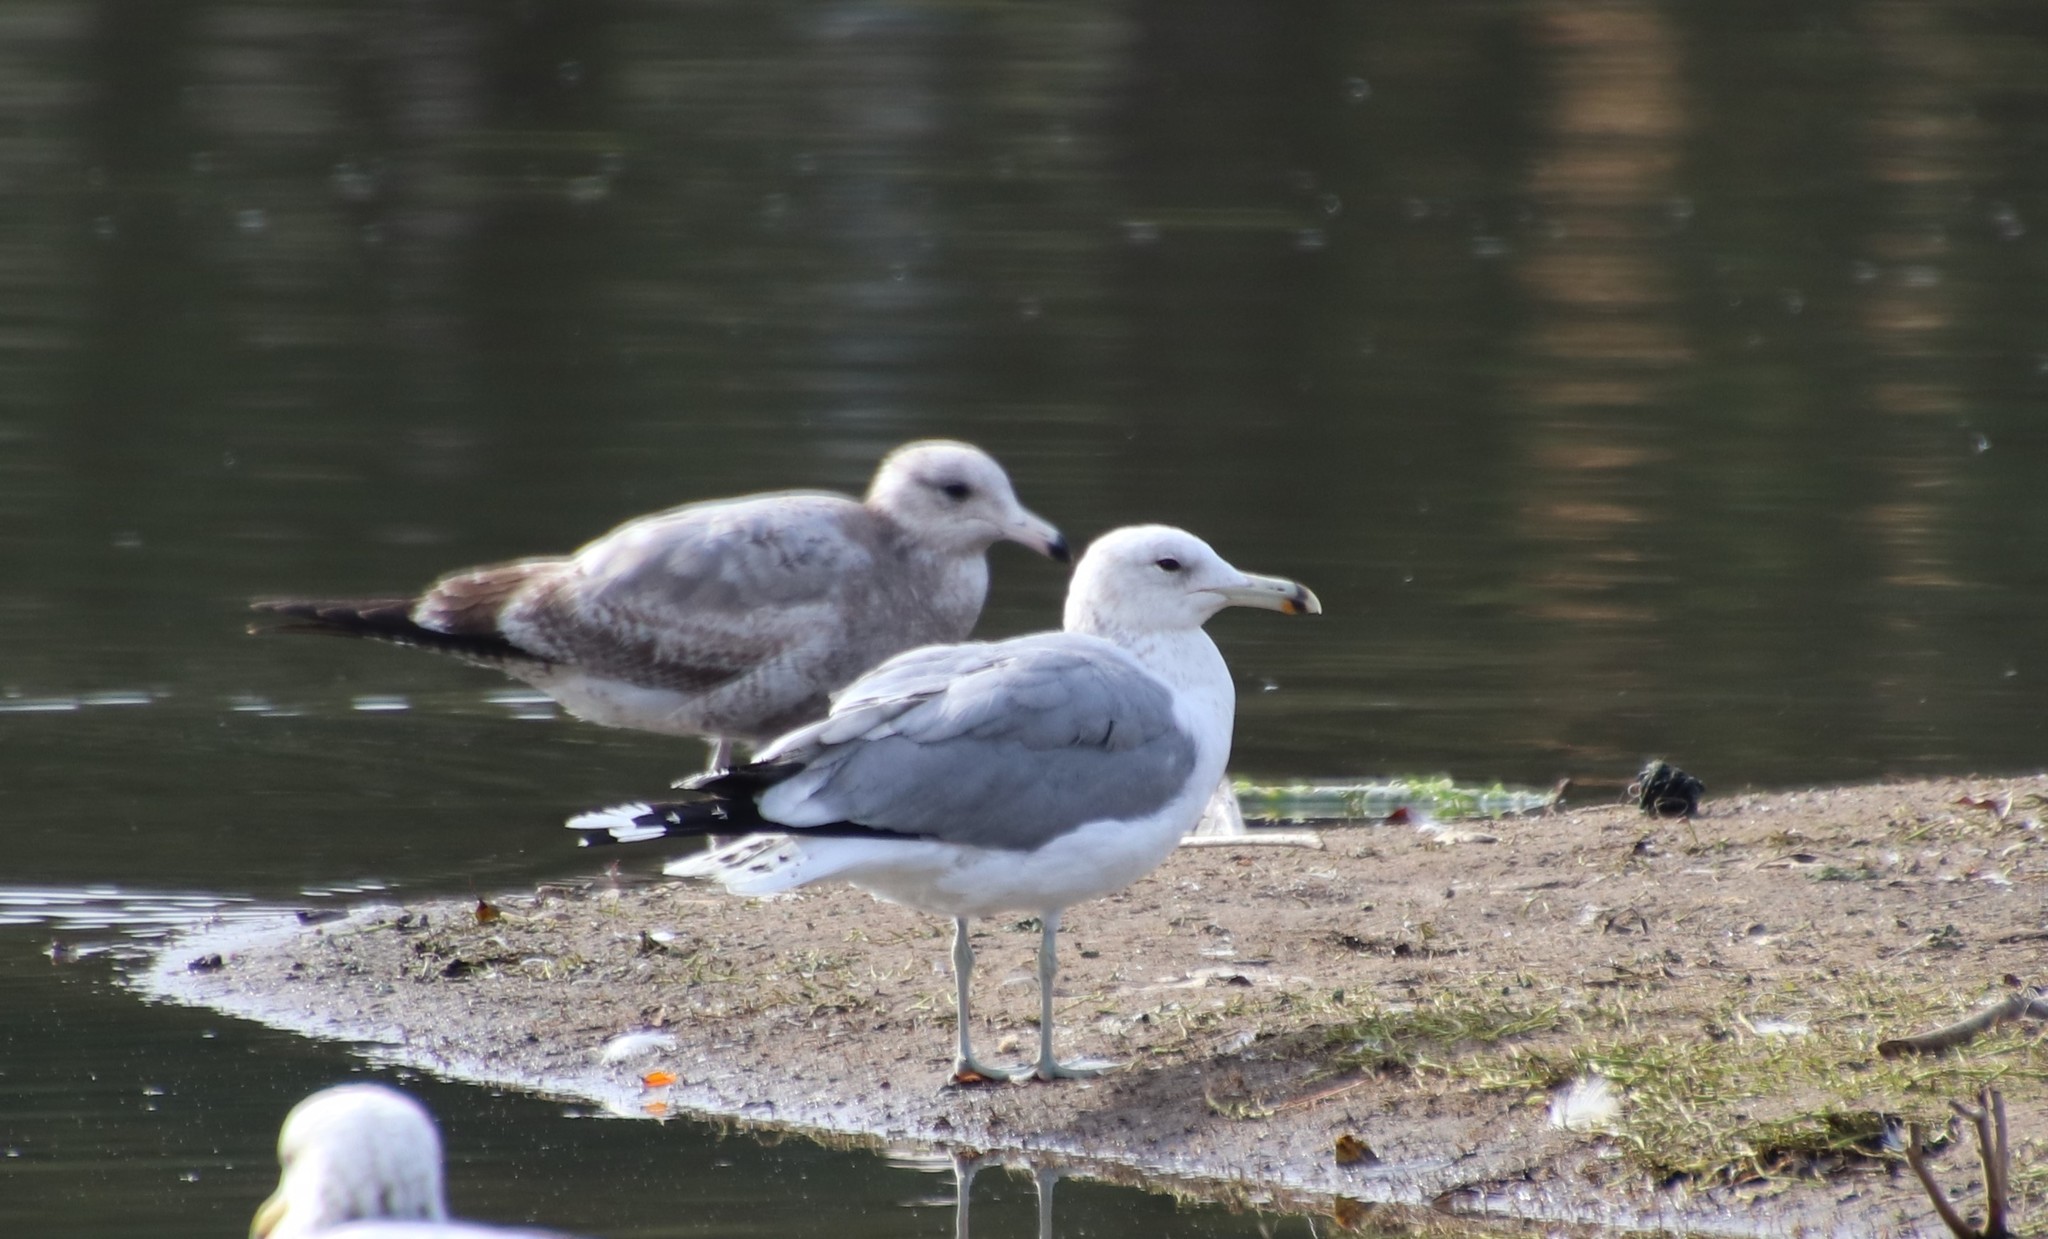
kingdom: Animalia
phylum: Chordata
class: Aves
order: Charadriiformes
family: Laridae
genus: Larus
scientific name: Larus californicus
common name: California gull
